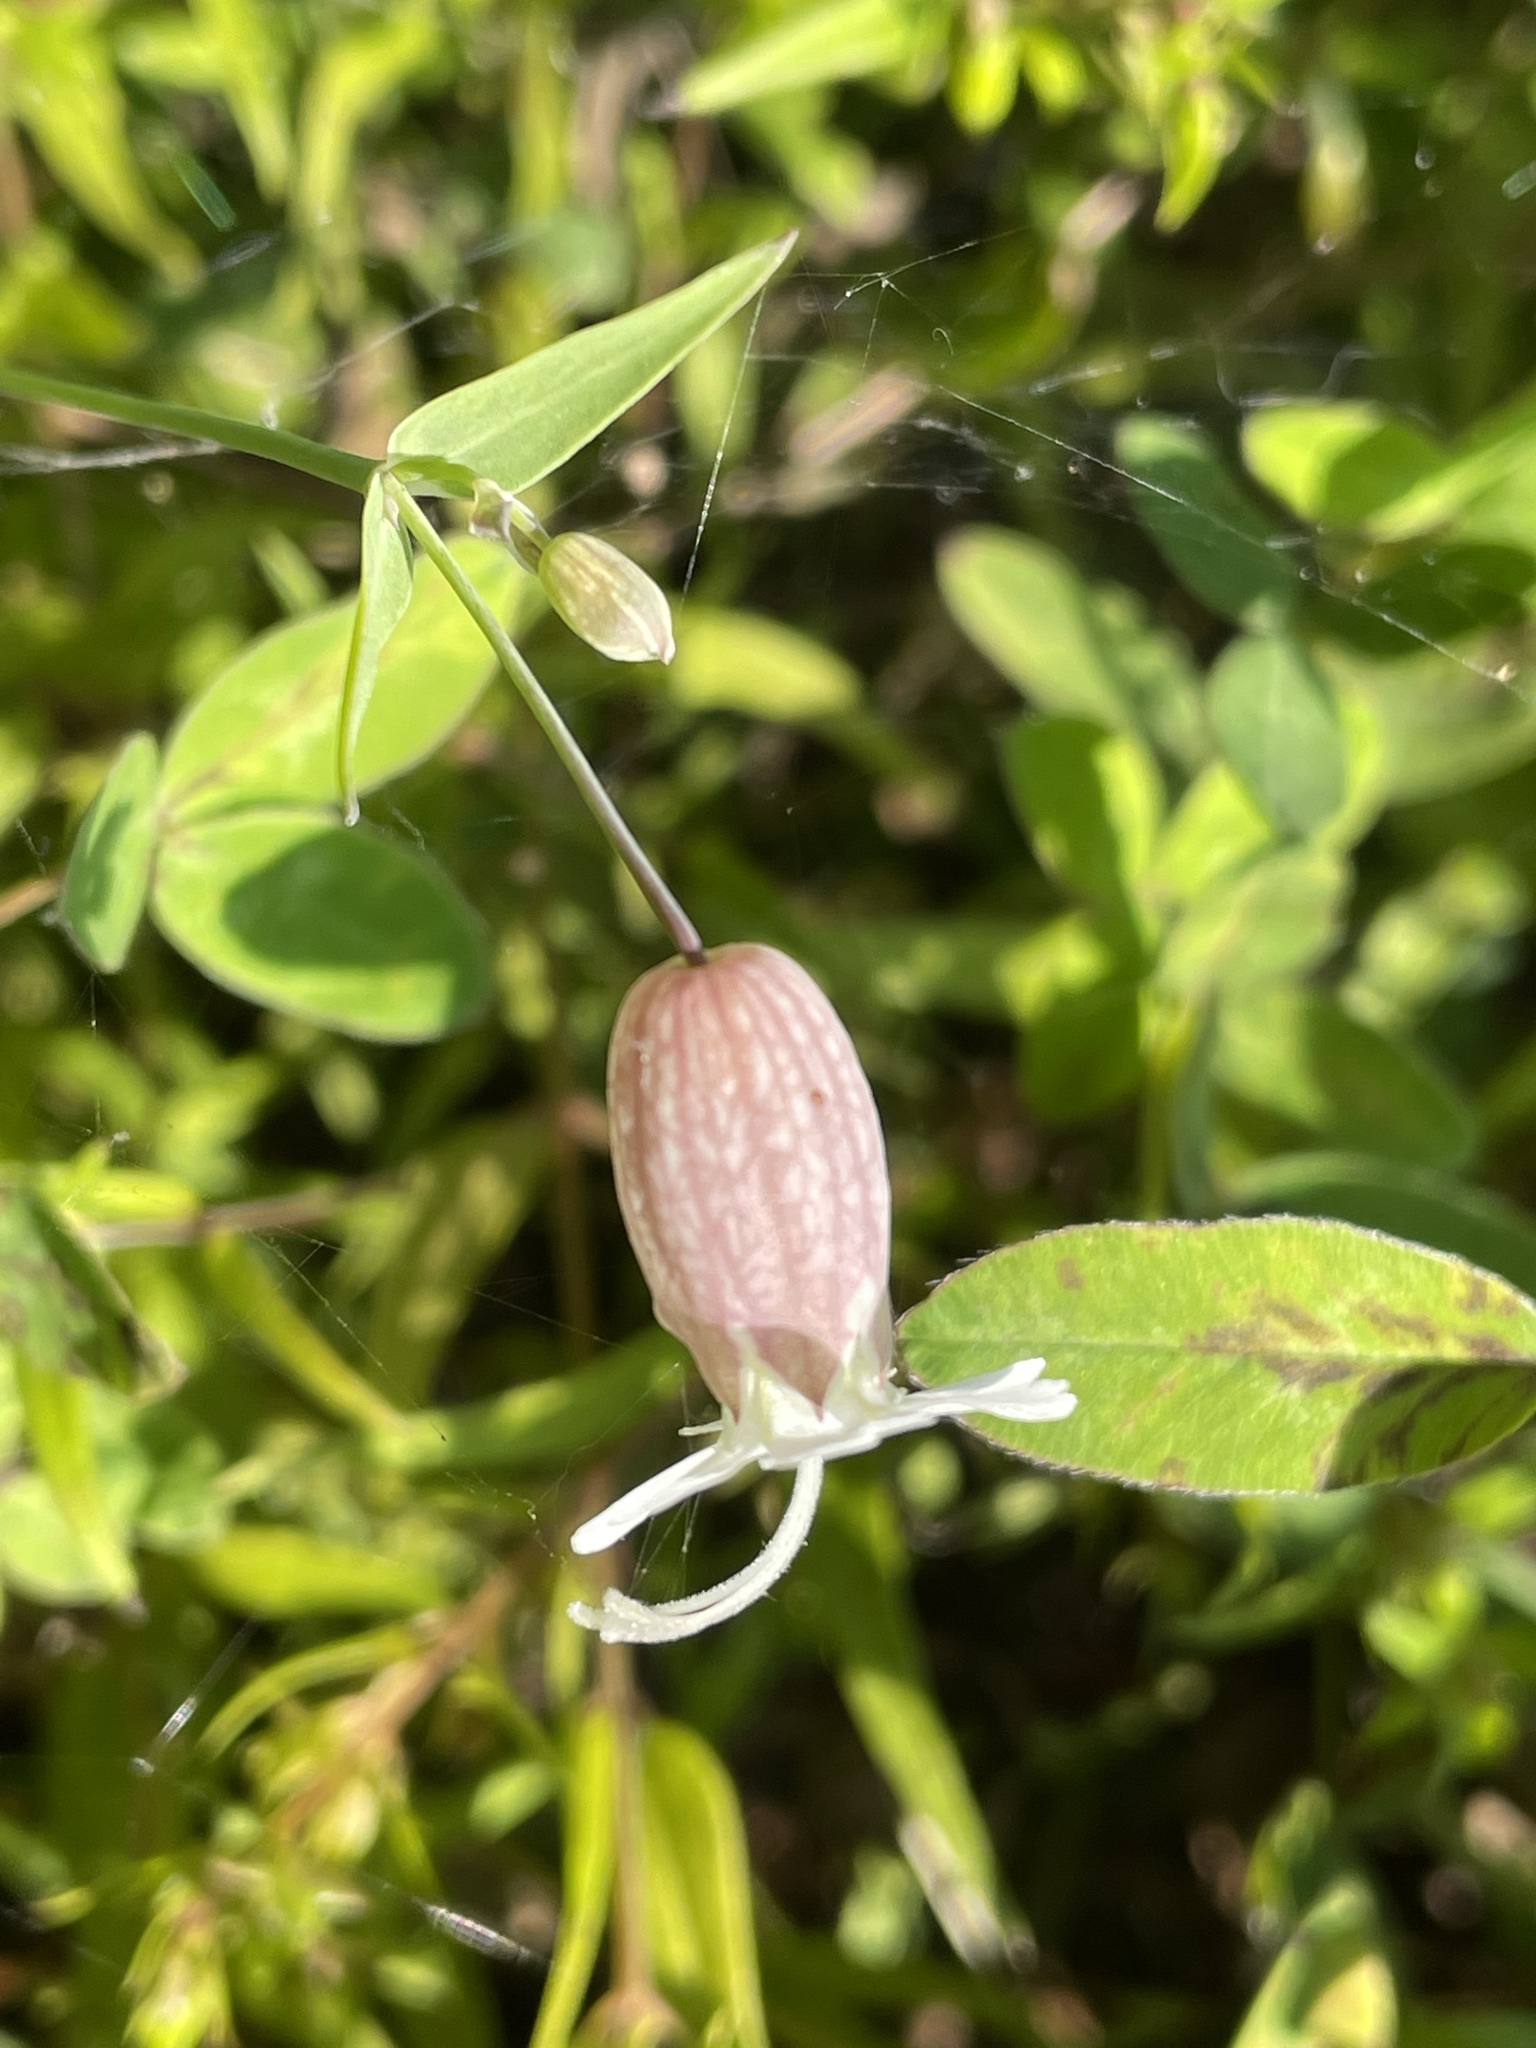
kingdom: Plantae
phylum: Tracheophyta
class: Magnoliopsida
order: Caryophyllales
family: Caryophyllaceae
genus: Silene
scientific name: Silene vulgaris
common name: Bladder campion
